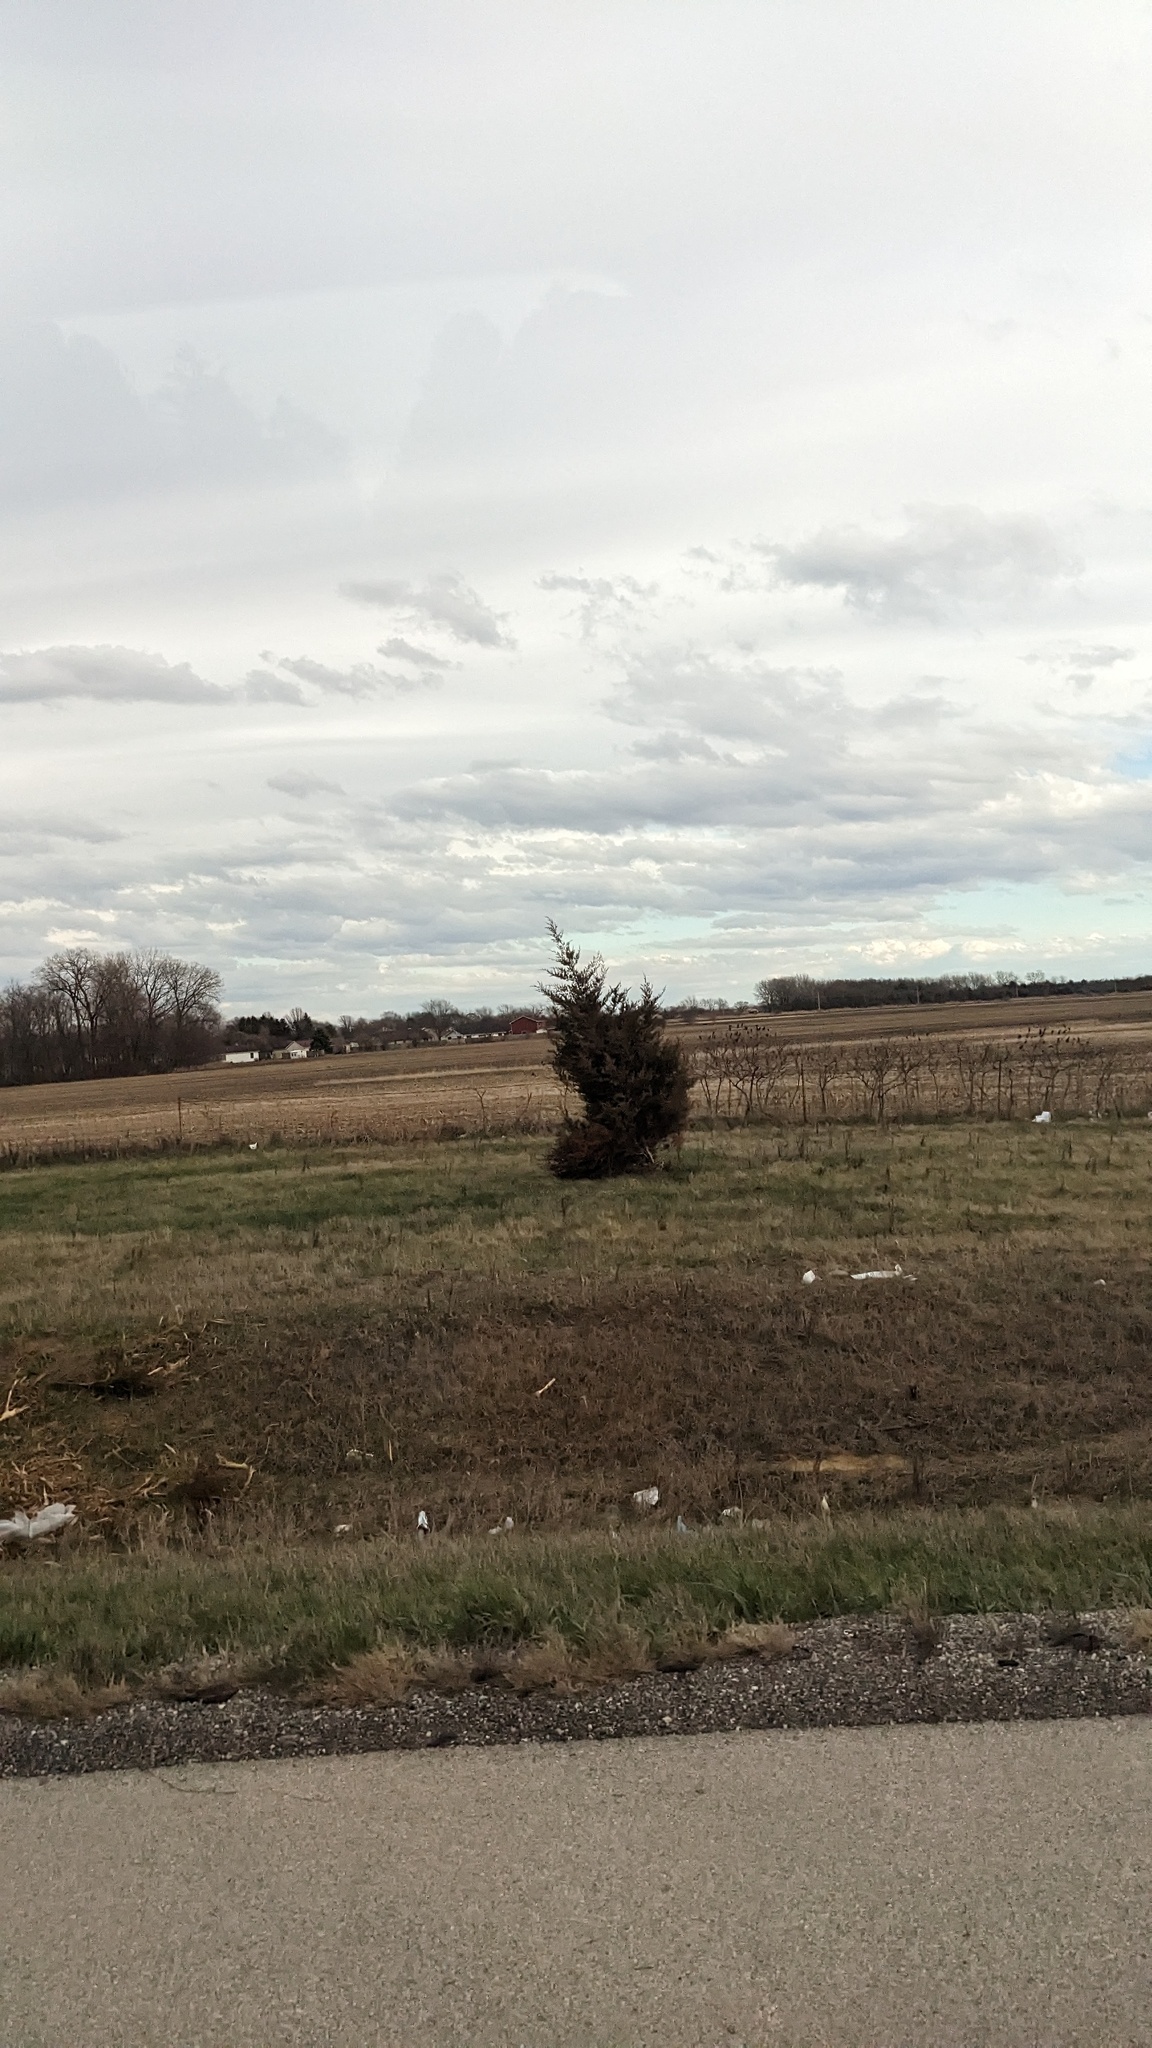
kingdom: Plantae
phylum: Tracheophyta
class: Pinopsida
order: Pinales
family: Cupressaceae
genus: Juniperus
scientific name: Juniperus virginiana
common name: Red juniper
